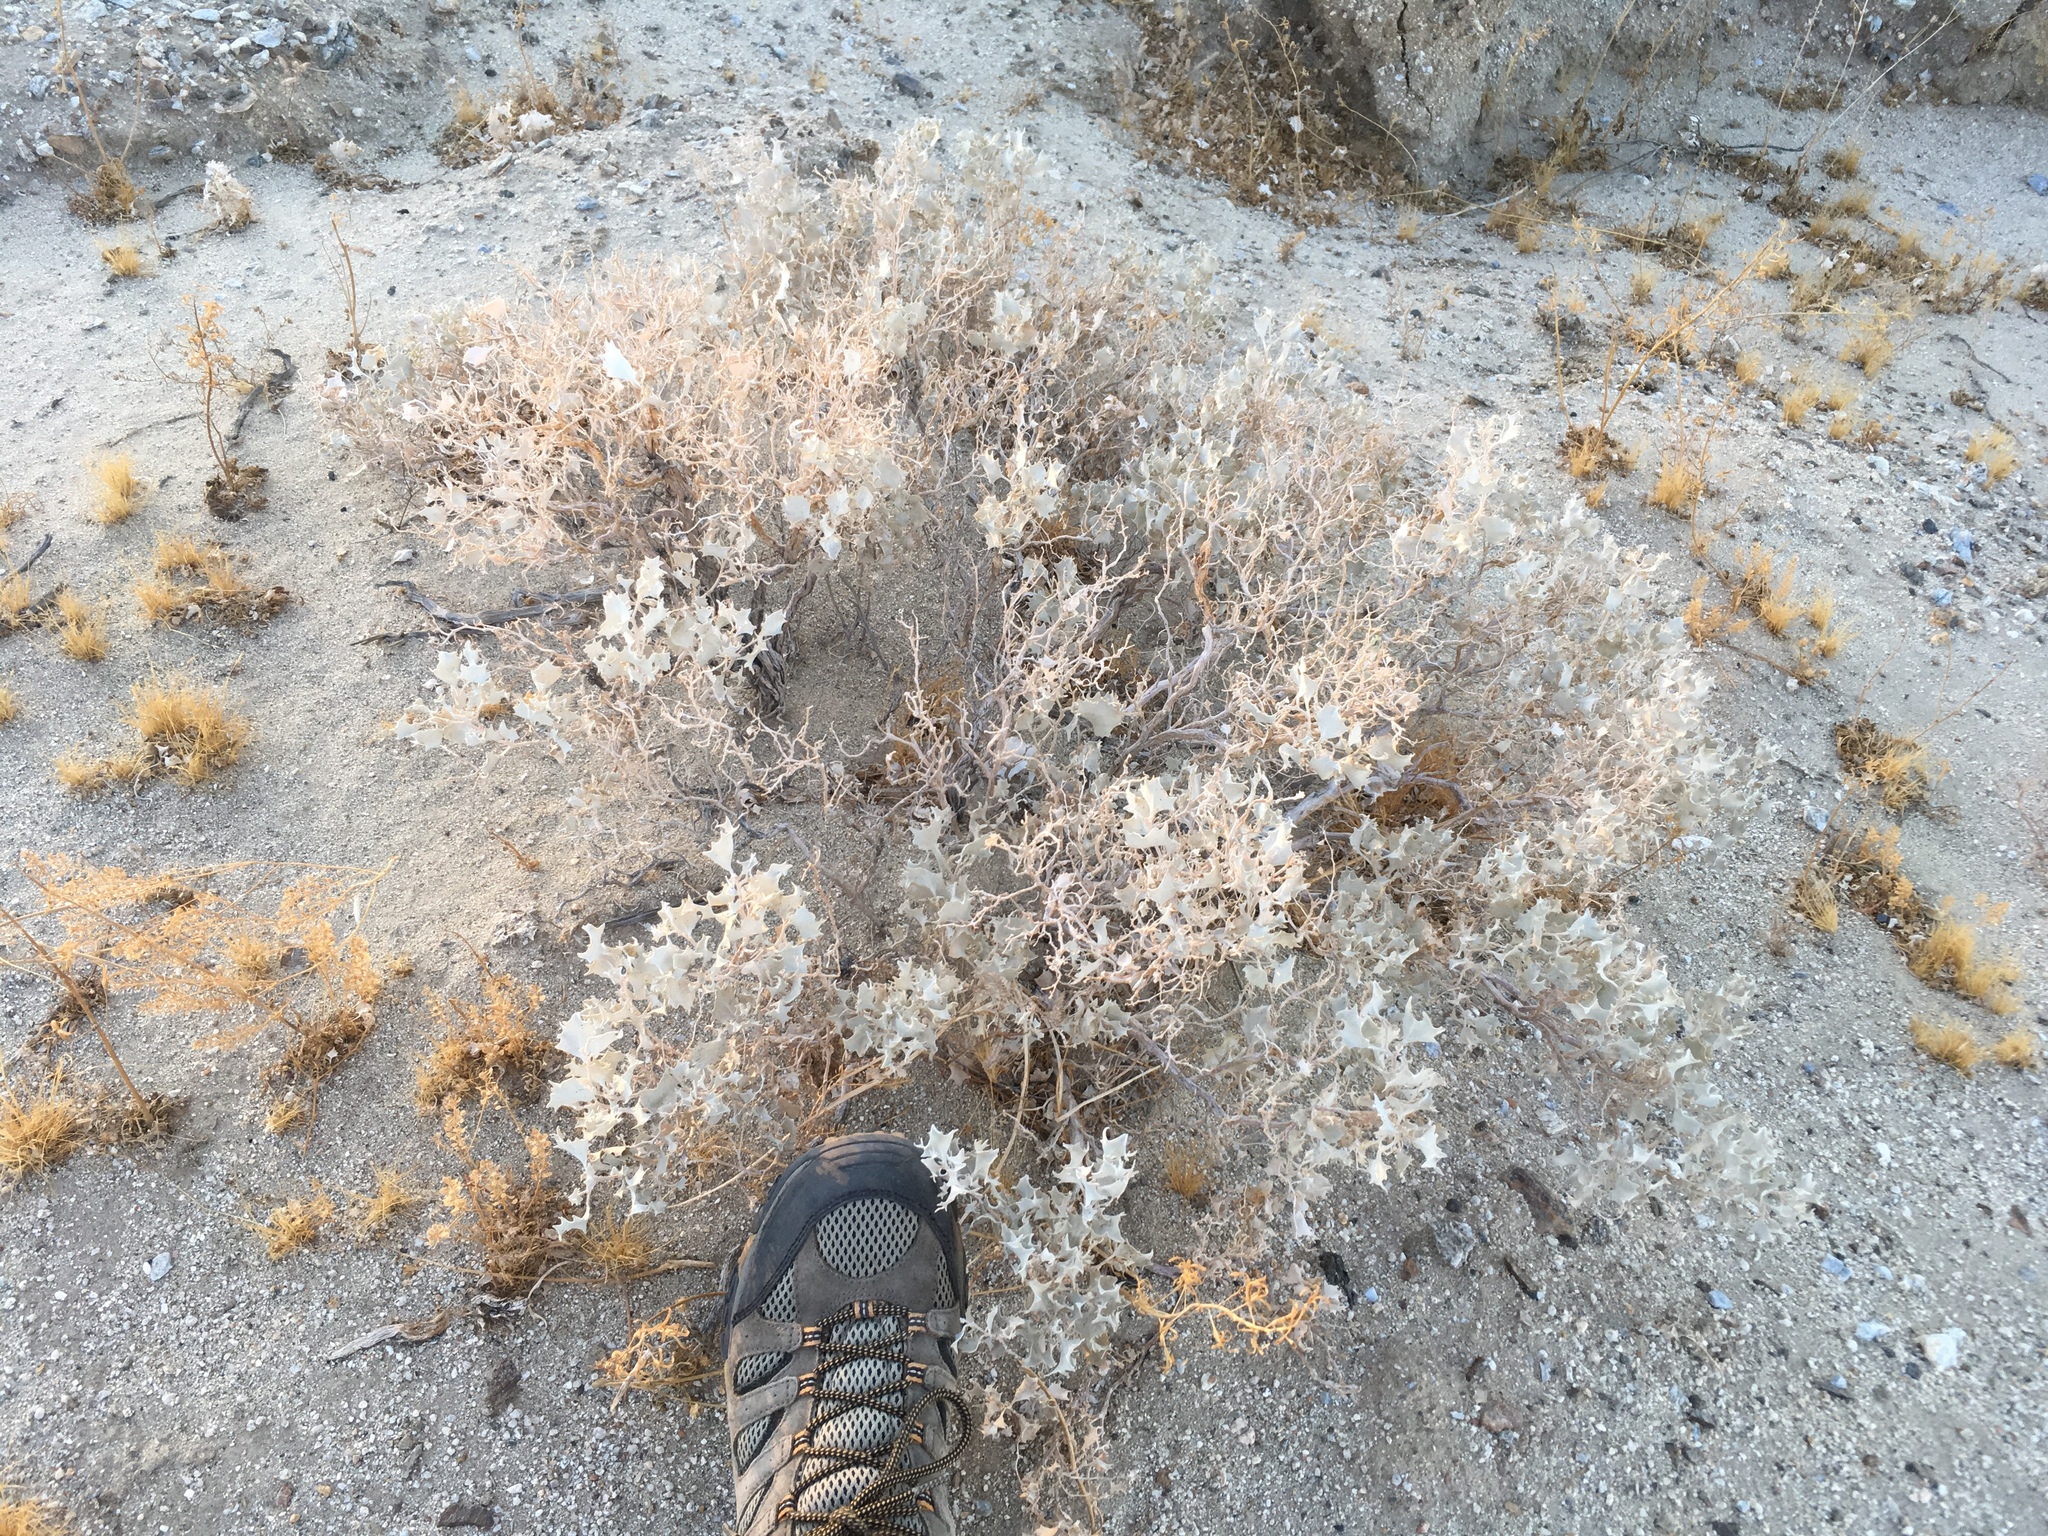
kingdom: Plantae
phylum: Tracheophyta
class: Magnoliopsida
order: Caryophyllales
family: Amaranthaceae
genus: Atriplex
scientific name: Atriplex hymenelytra
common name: Desert-holly
